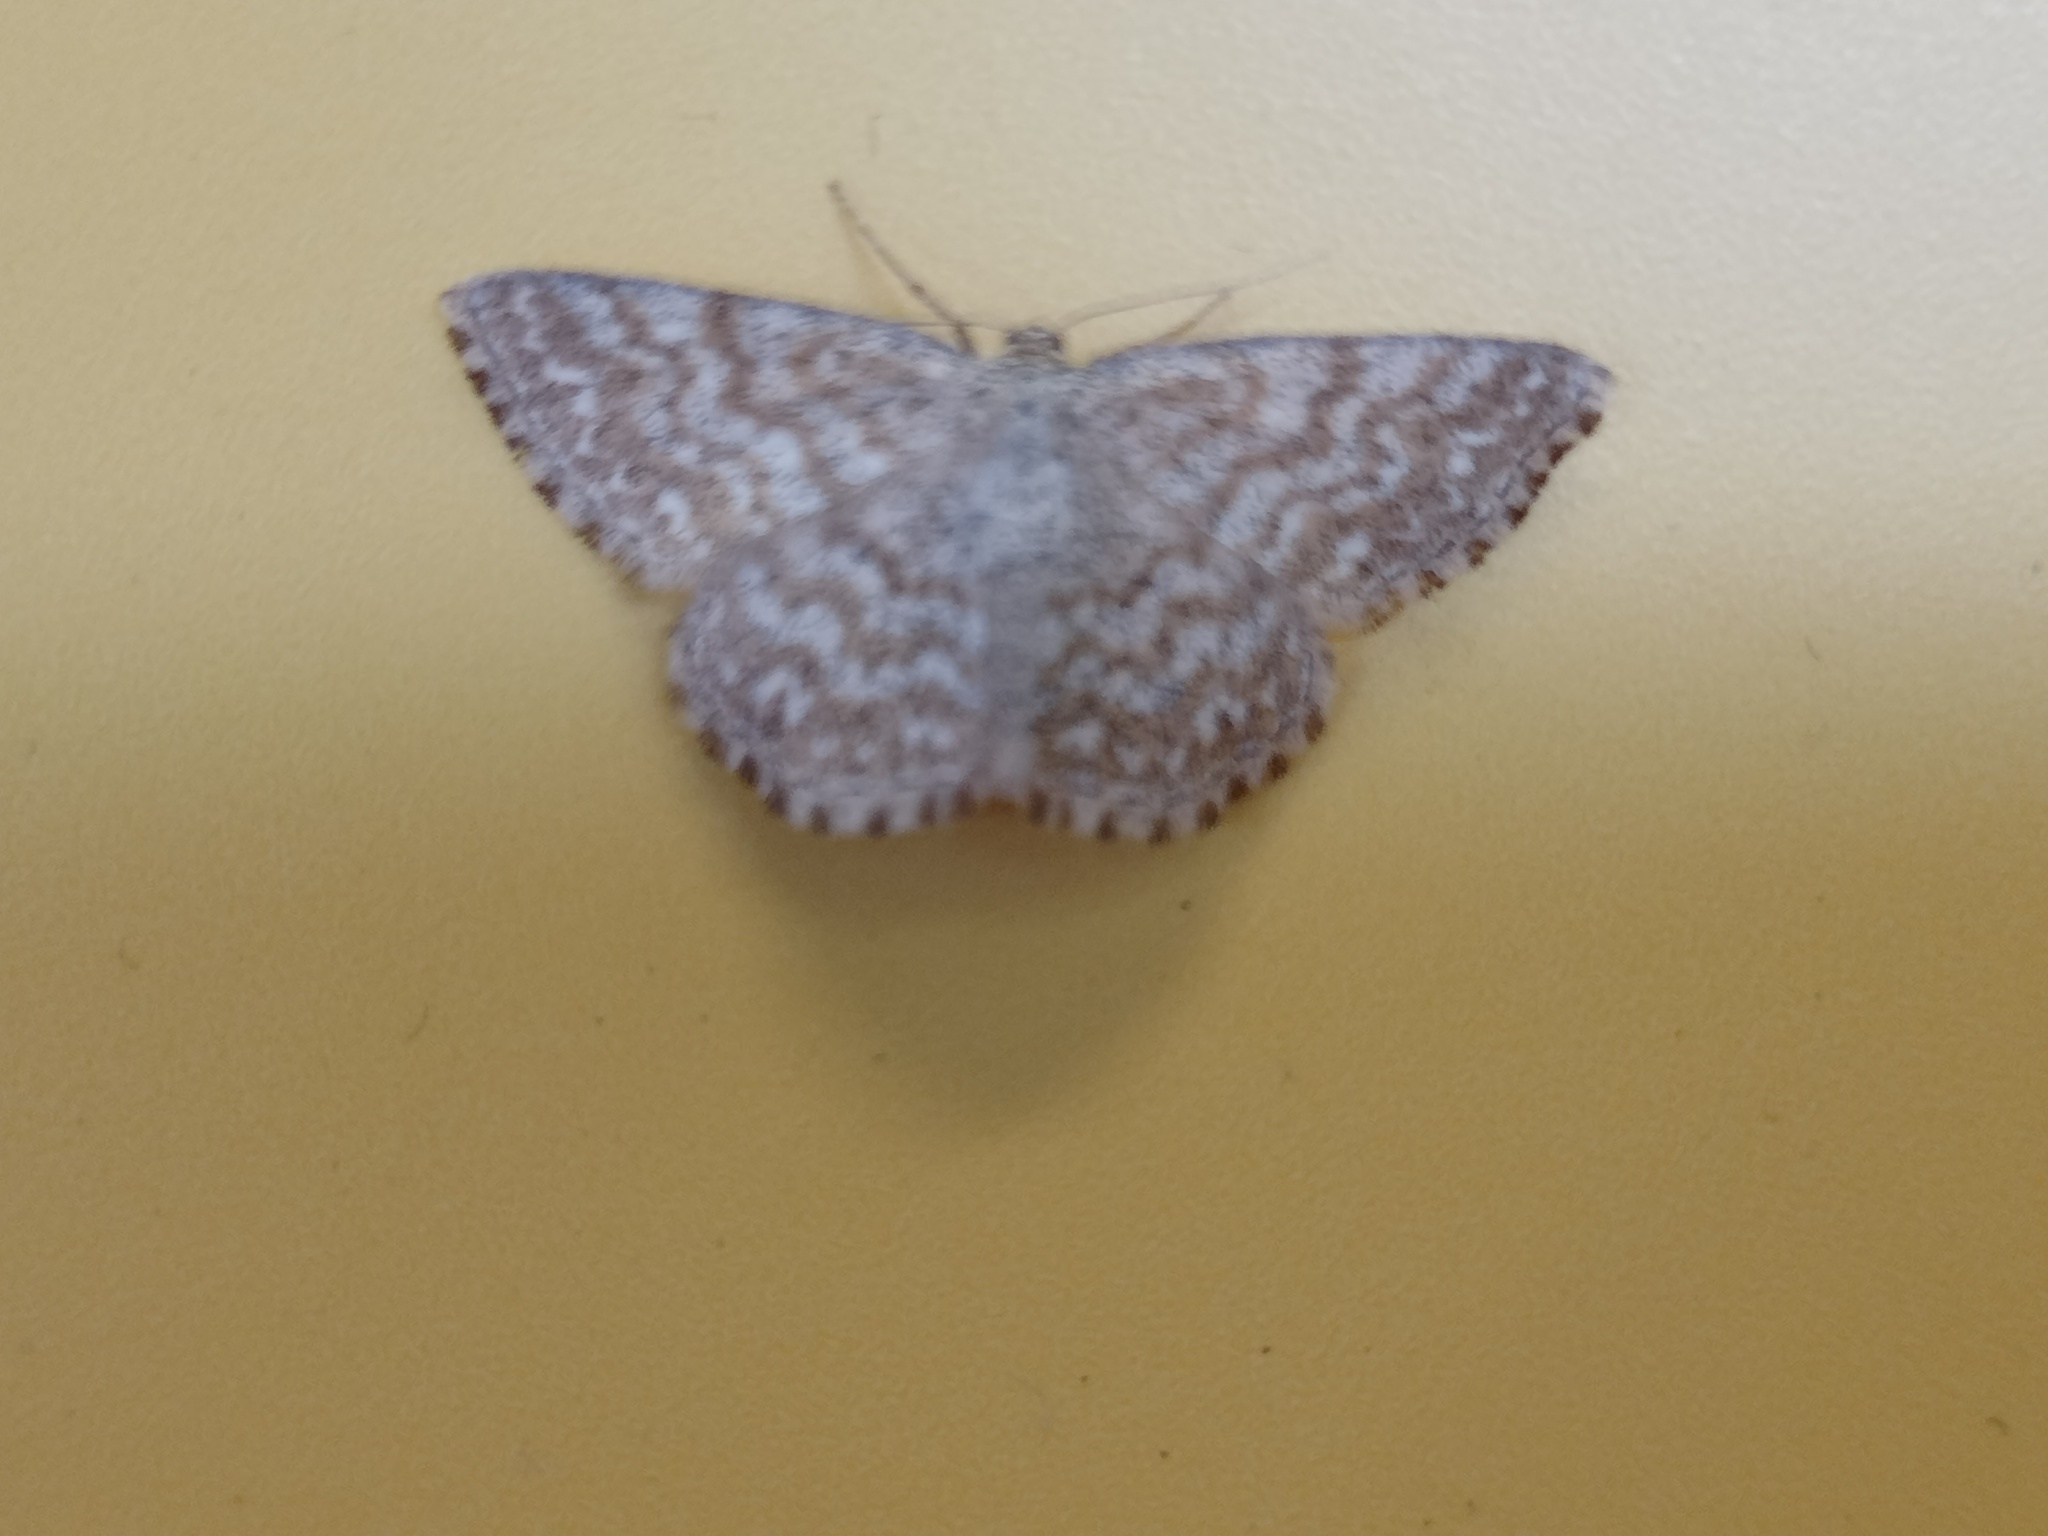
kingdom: Animalia
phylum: Arthropoda
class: Insecta
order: Lepidoptera
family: Geometridae
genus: Scopula
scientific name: Scopula immorata
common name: Lewes wave
